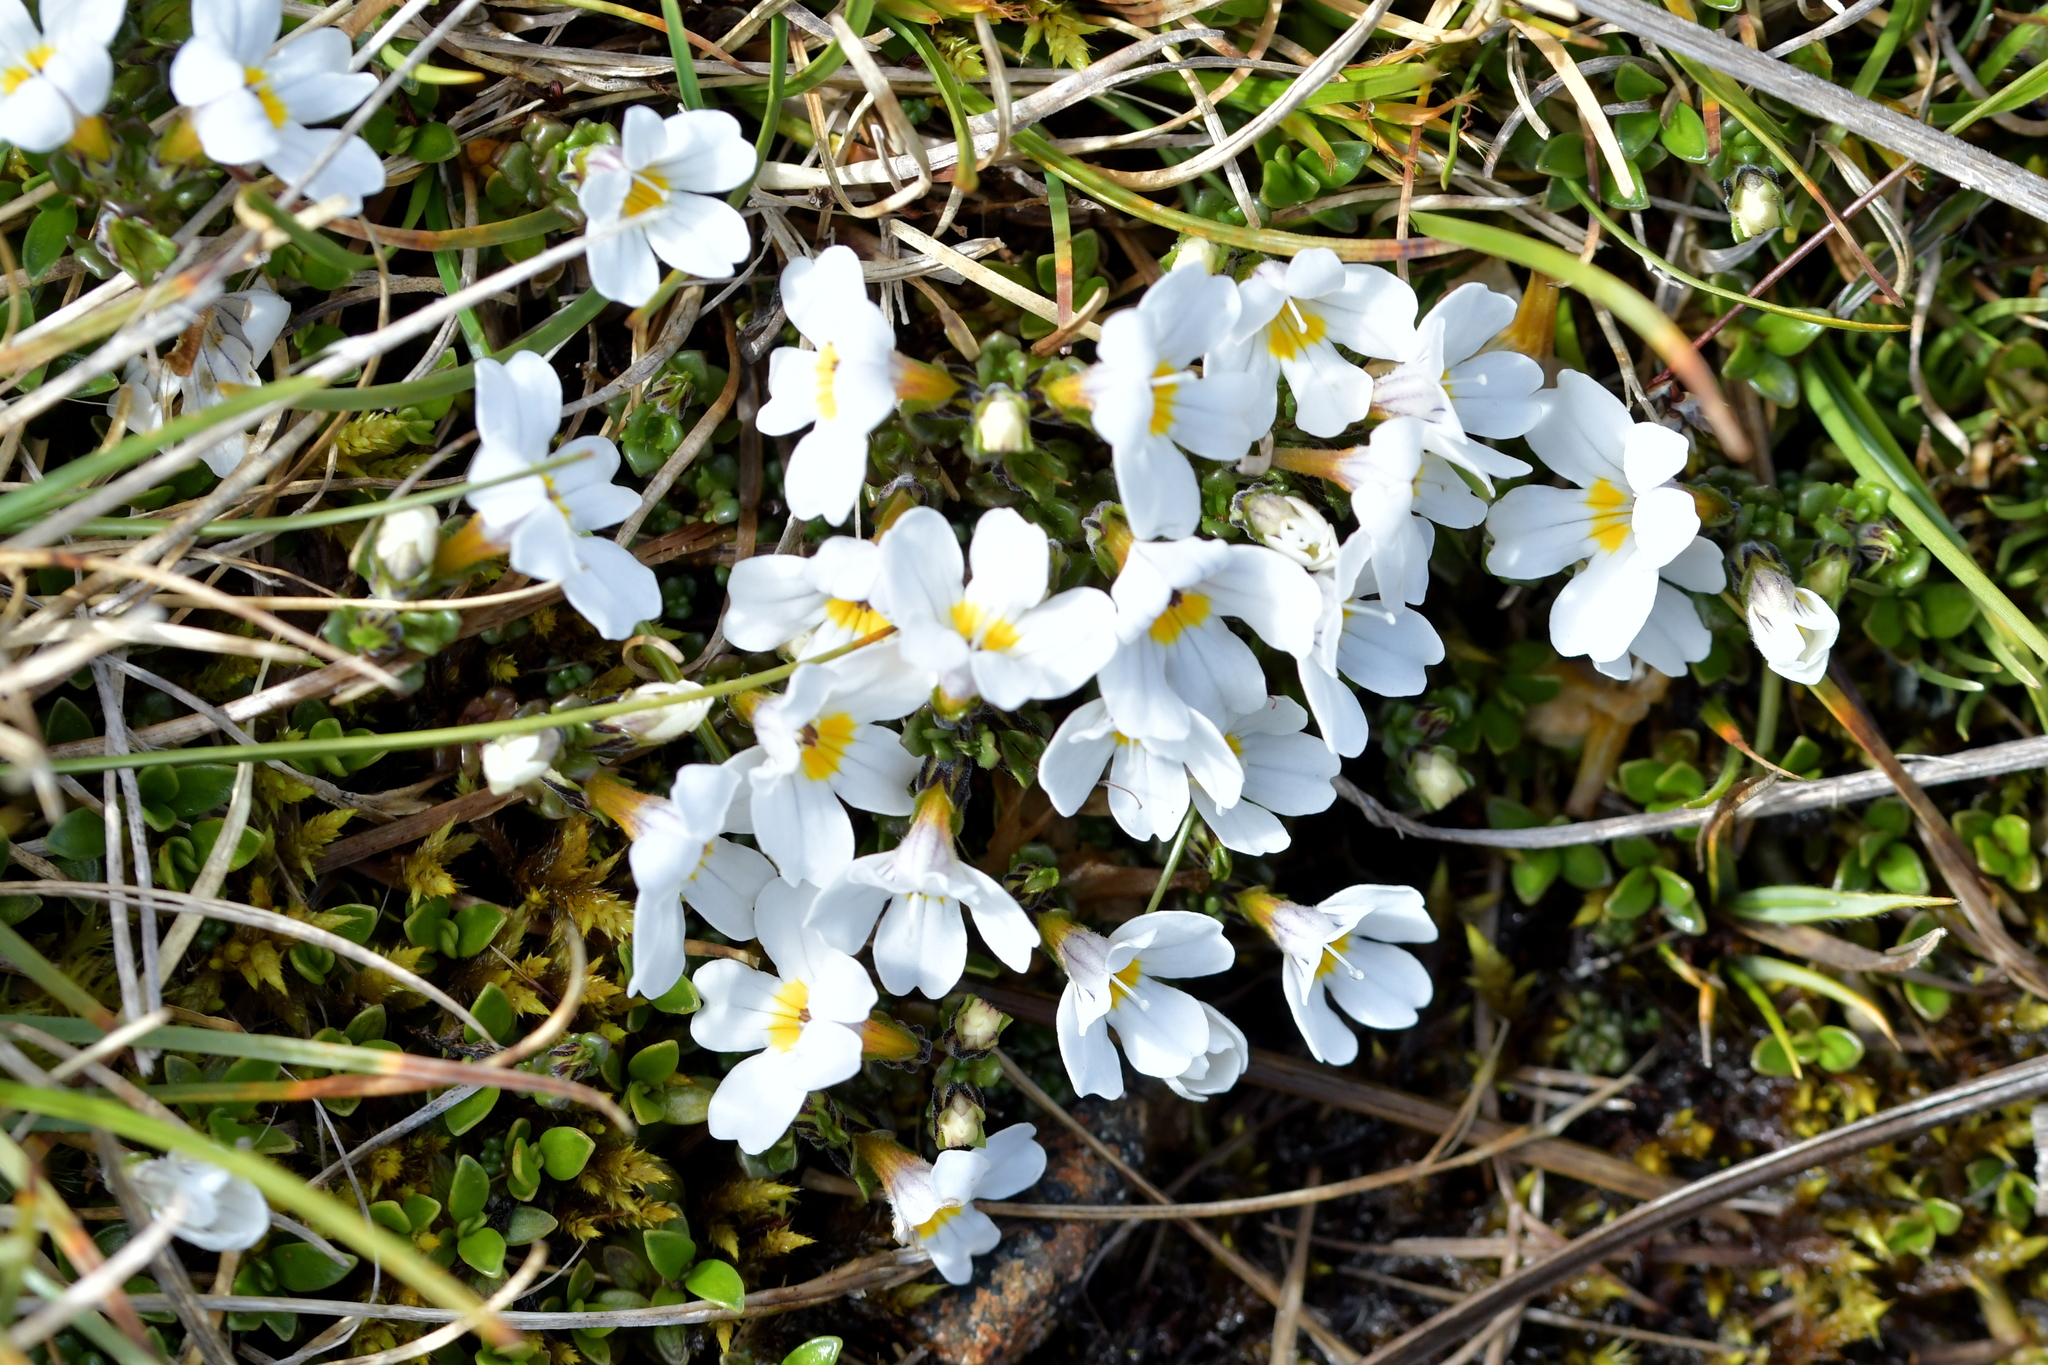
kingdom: Plantae
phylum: Tracheophyta
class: Magnoliopsida
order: Lamiales
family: Orobanchaceae
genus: Euphrasia
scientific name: Euphrasia revoluta
